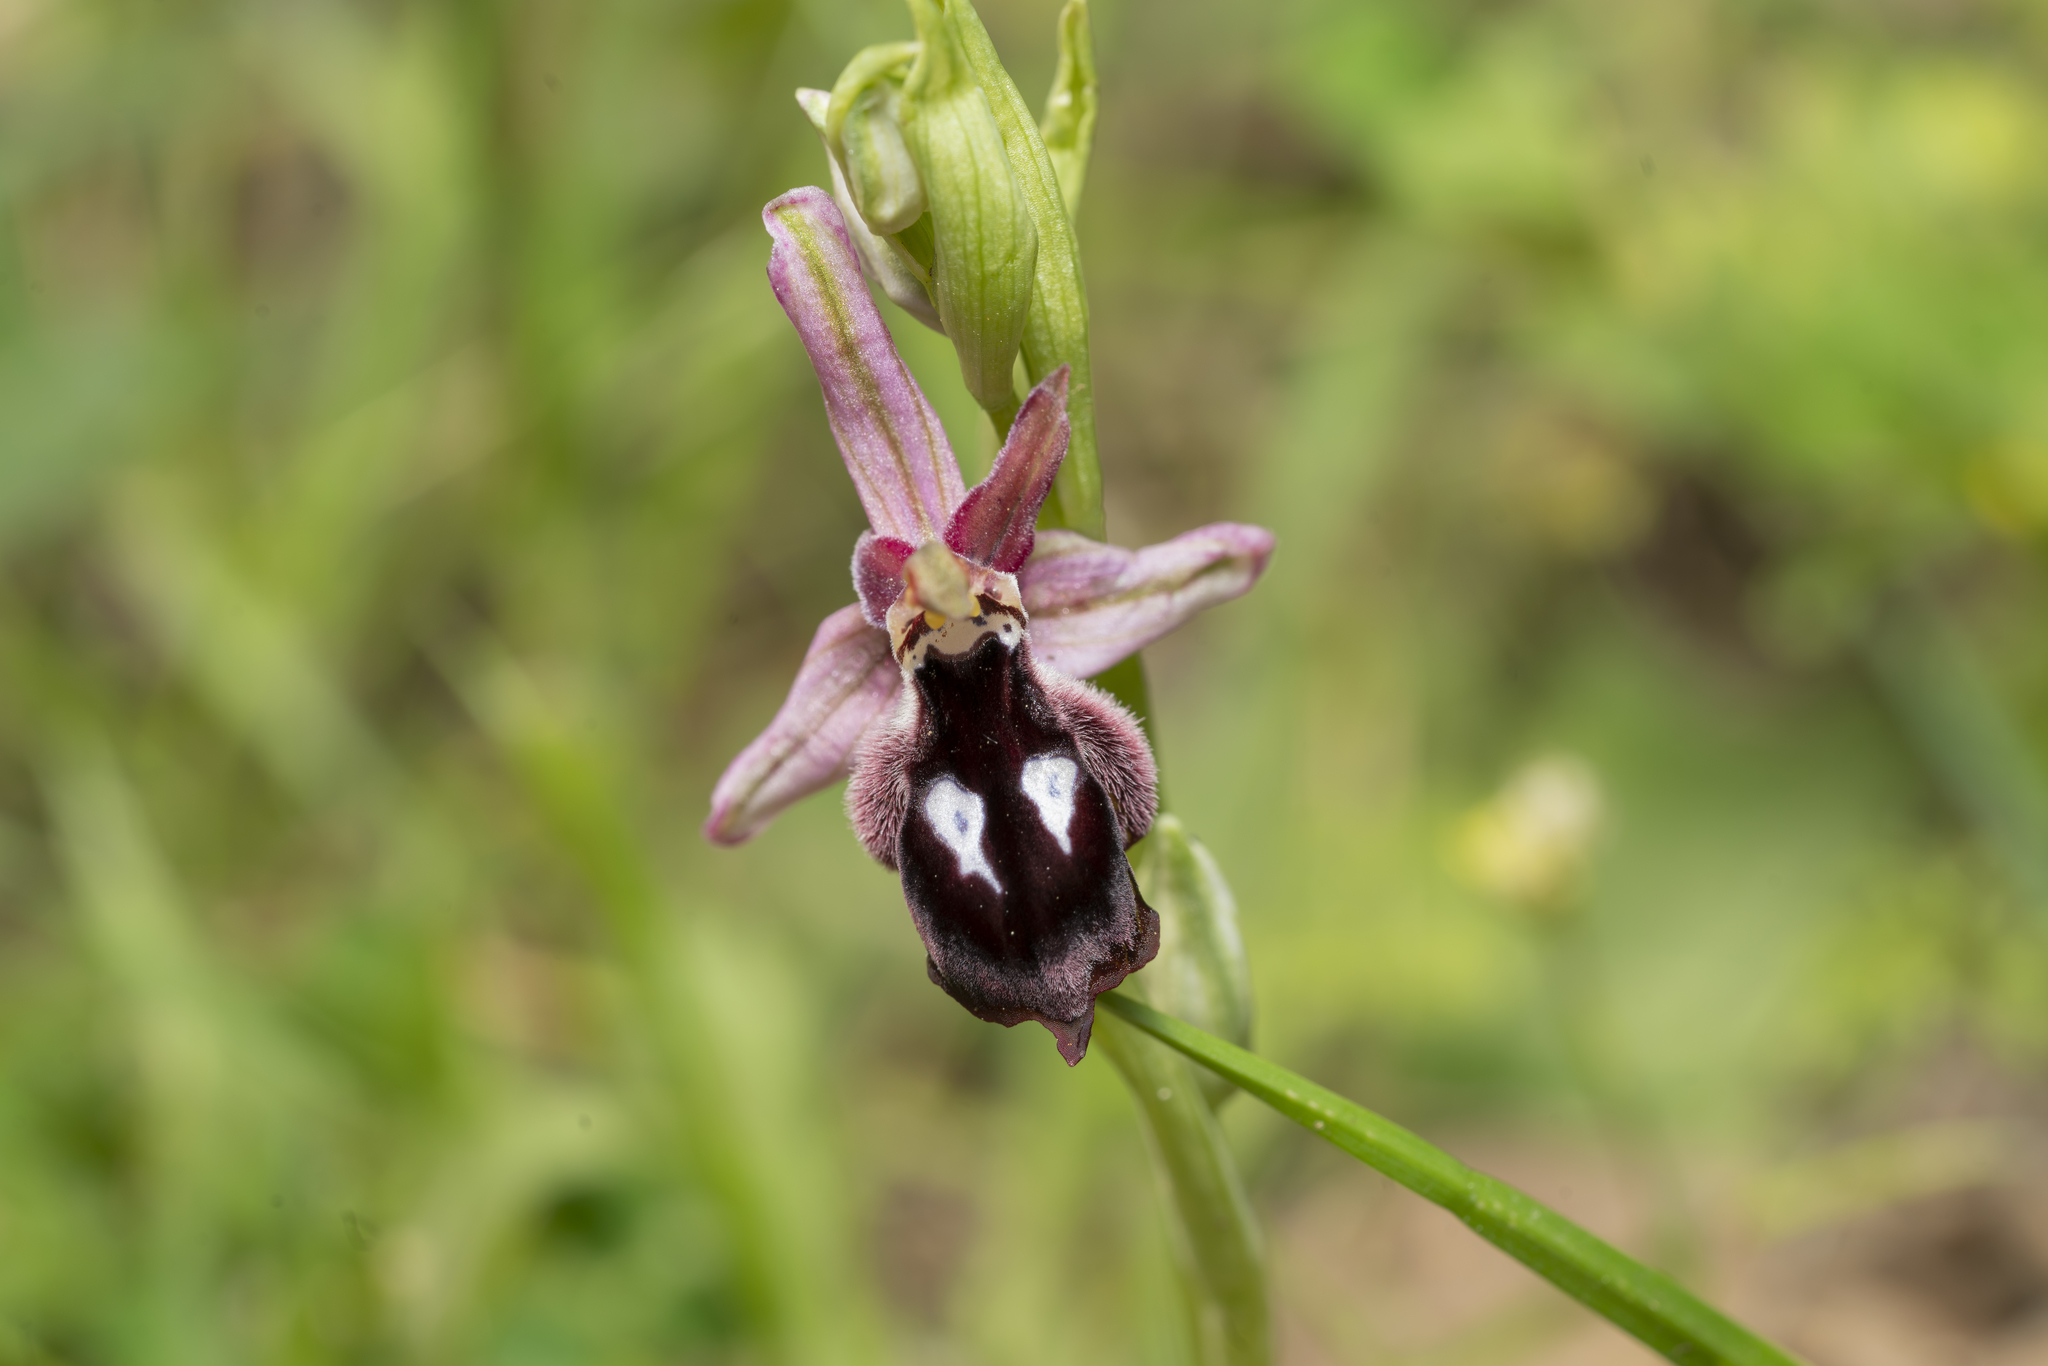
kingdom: Plantae
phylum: Tracheophyta
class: Liliopsida
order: Asparagales
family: Orchidaceae
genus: Ophrys
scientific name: Ophrys reinholdii
